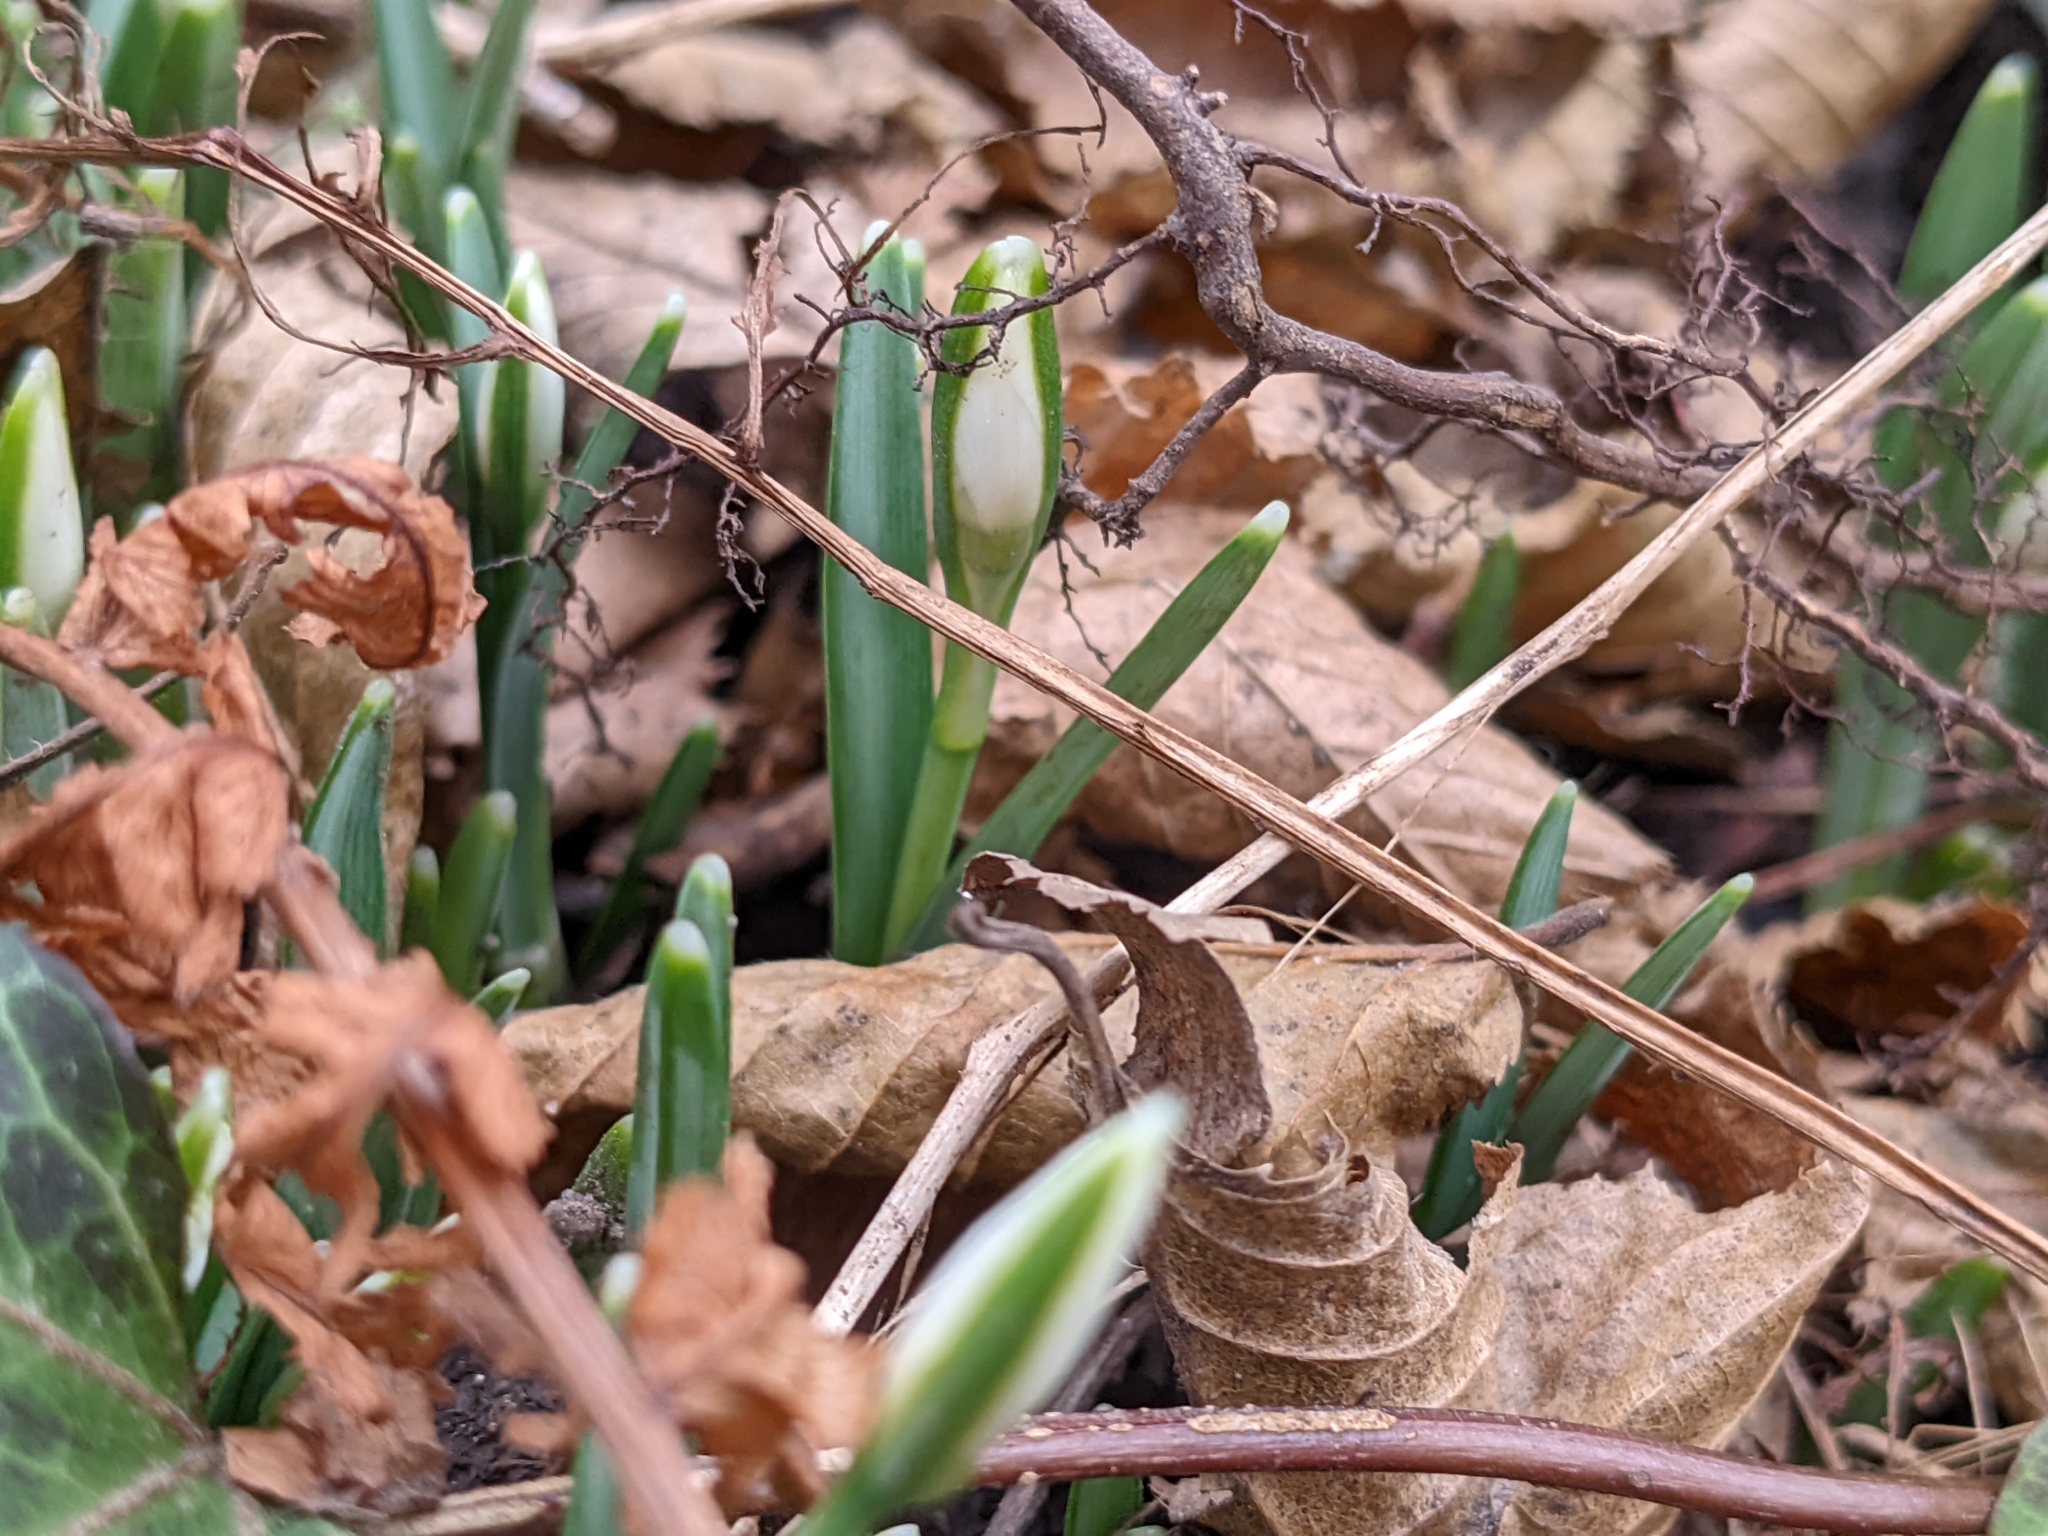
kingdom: Plantae
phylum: Tracheophyta
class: Liliopsida
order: Asparagales
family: Amaryllidaceae
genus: Galanthus
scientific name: Galanthus nivalis
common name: Snowdrop
